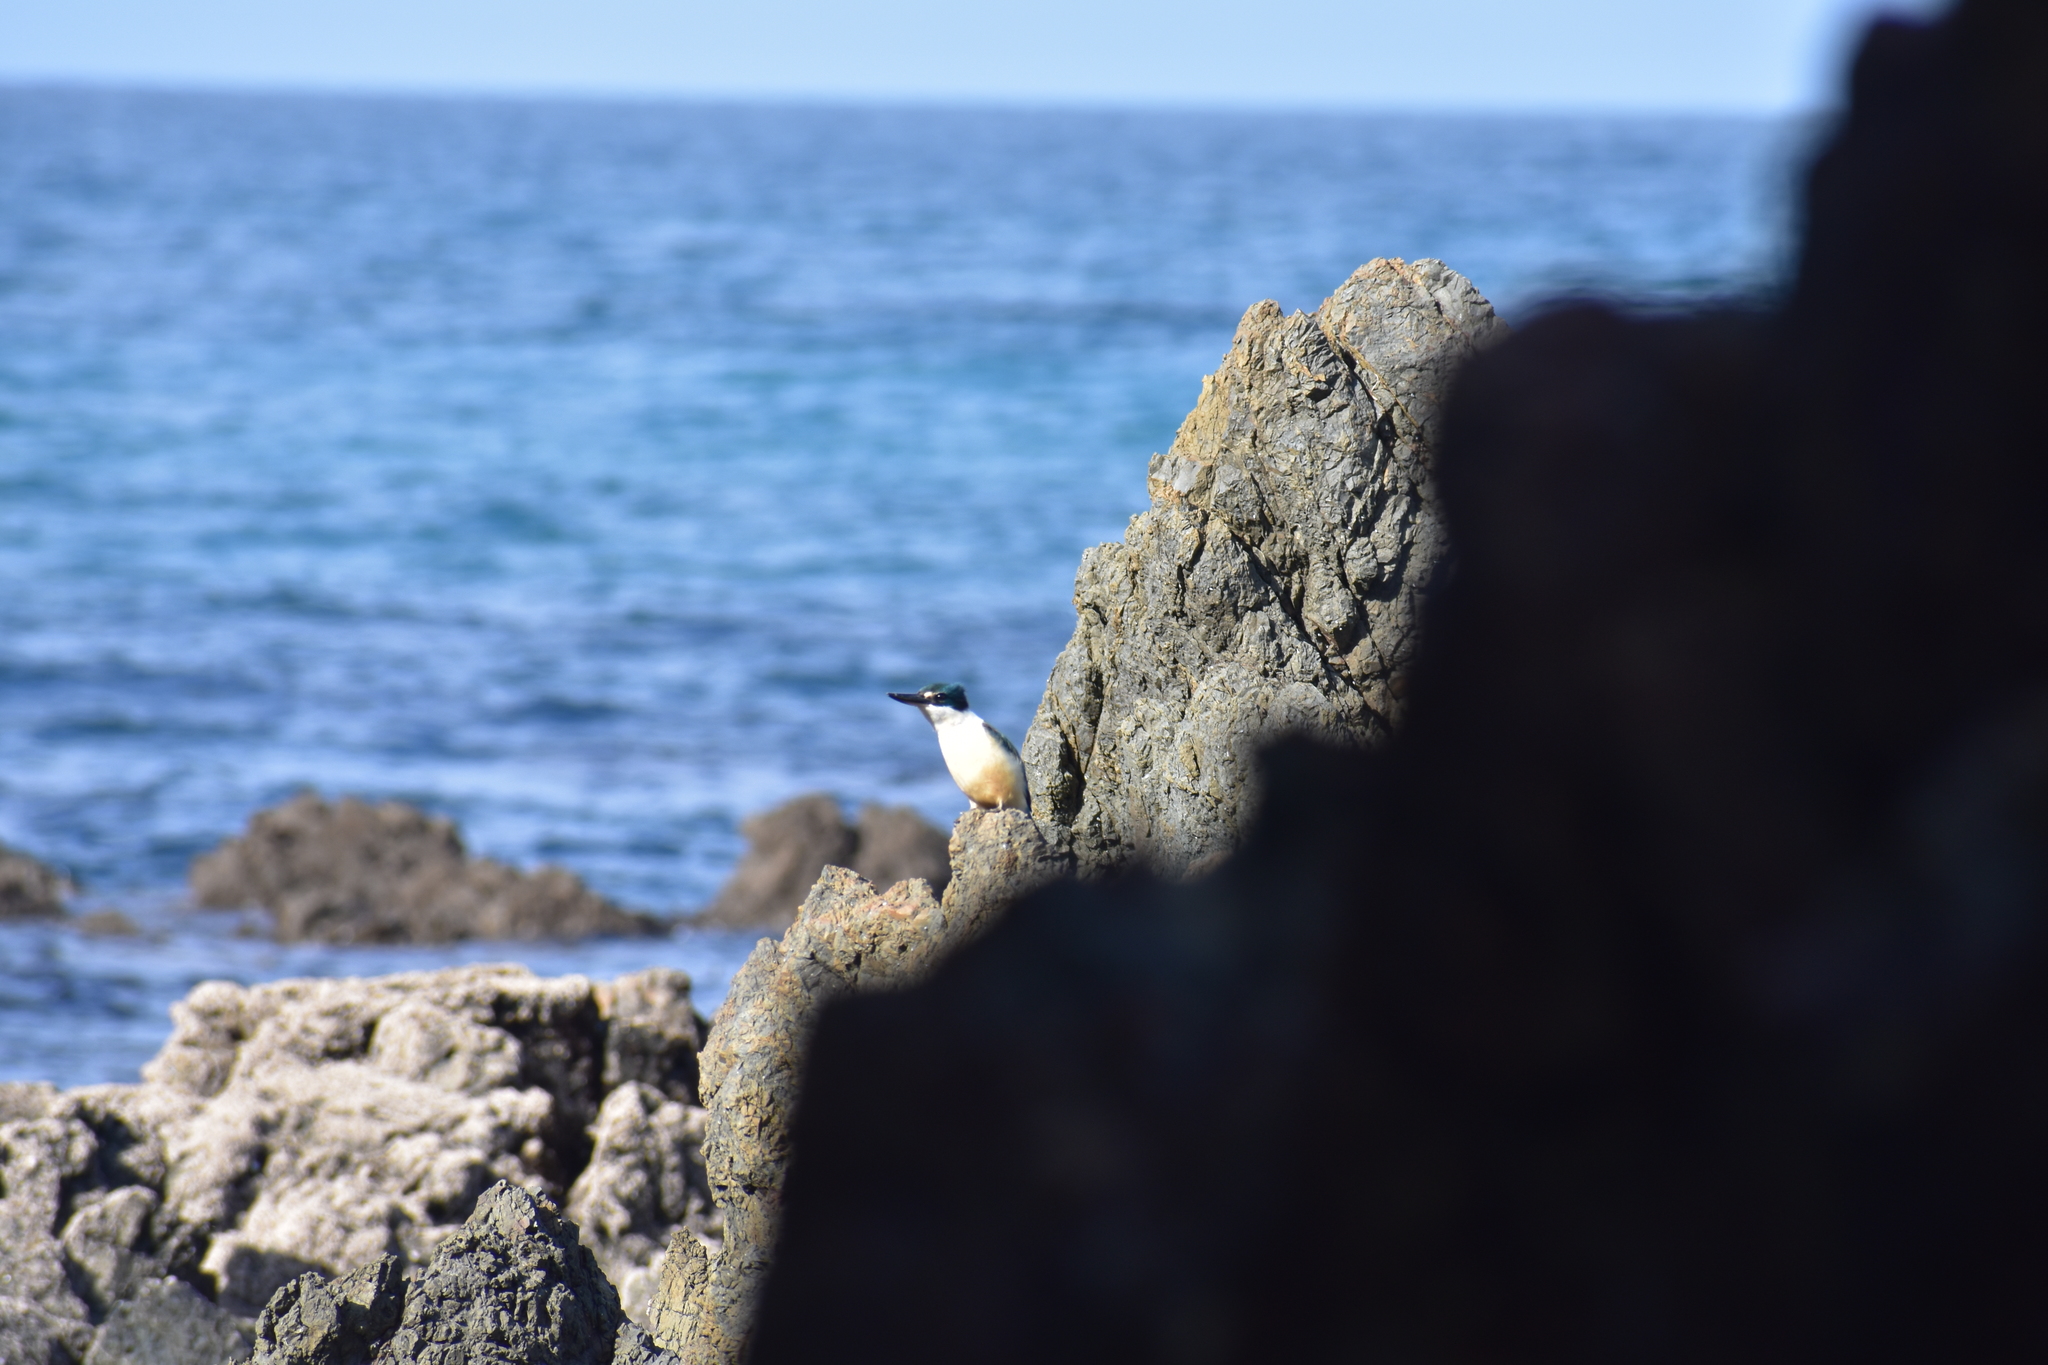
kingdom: Animalia
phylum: Chordata
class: Aves
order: Coraciiformes
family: Alcedinidae
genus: Todiramphus
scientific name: Todiramphus sanctus
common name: Sacred kingfisher
